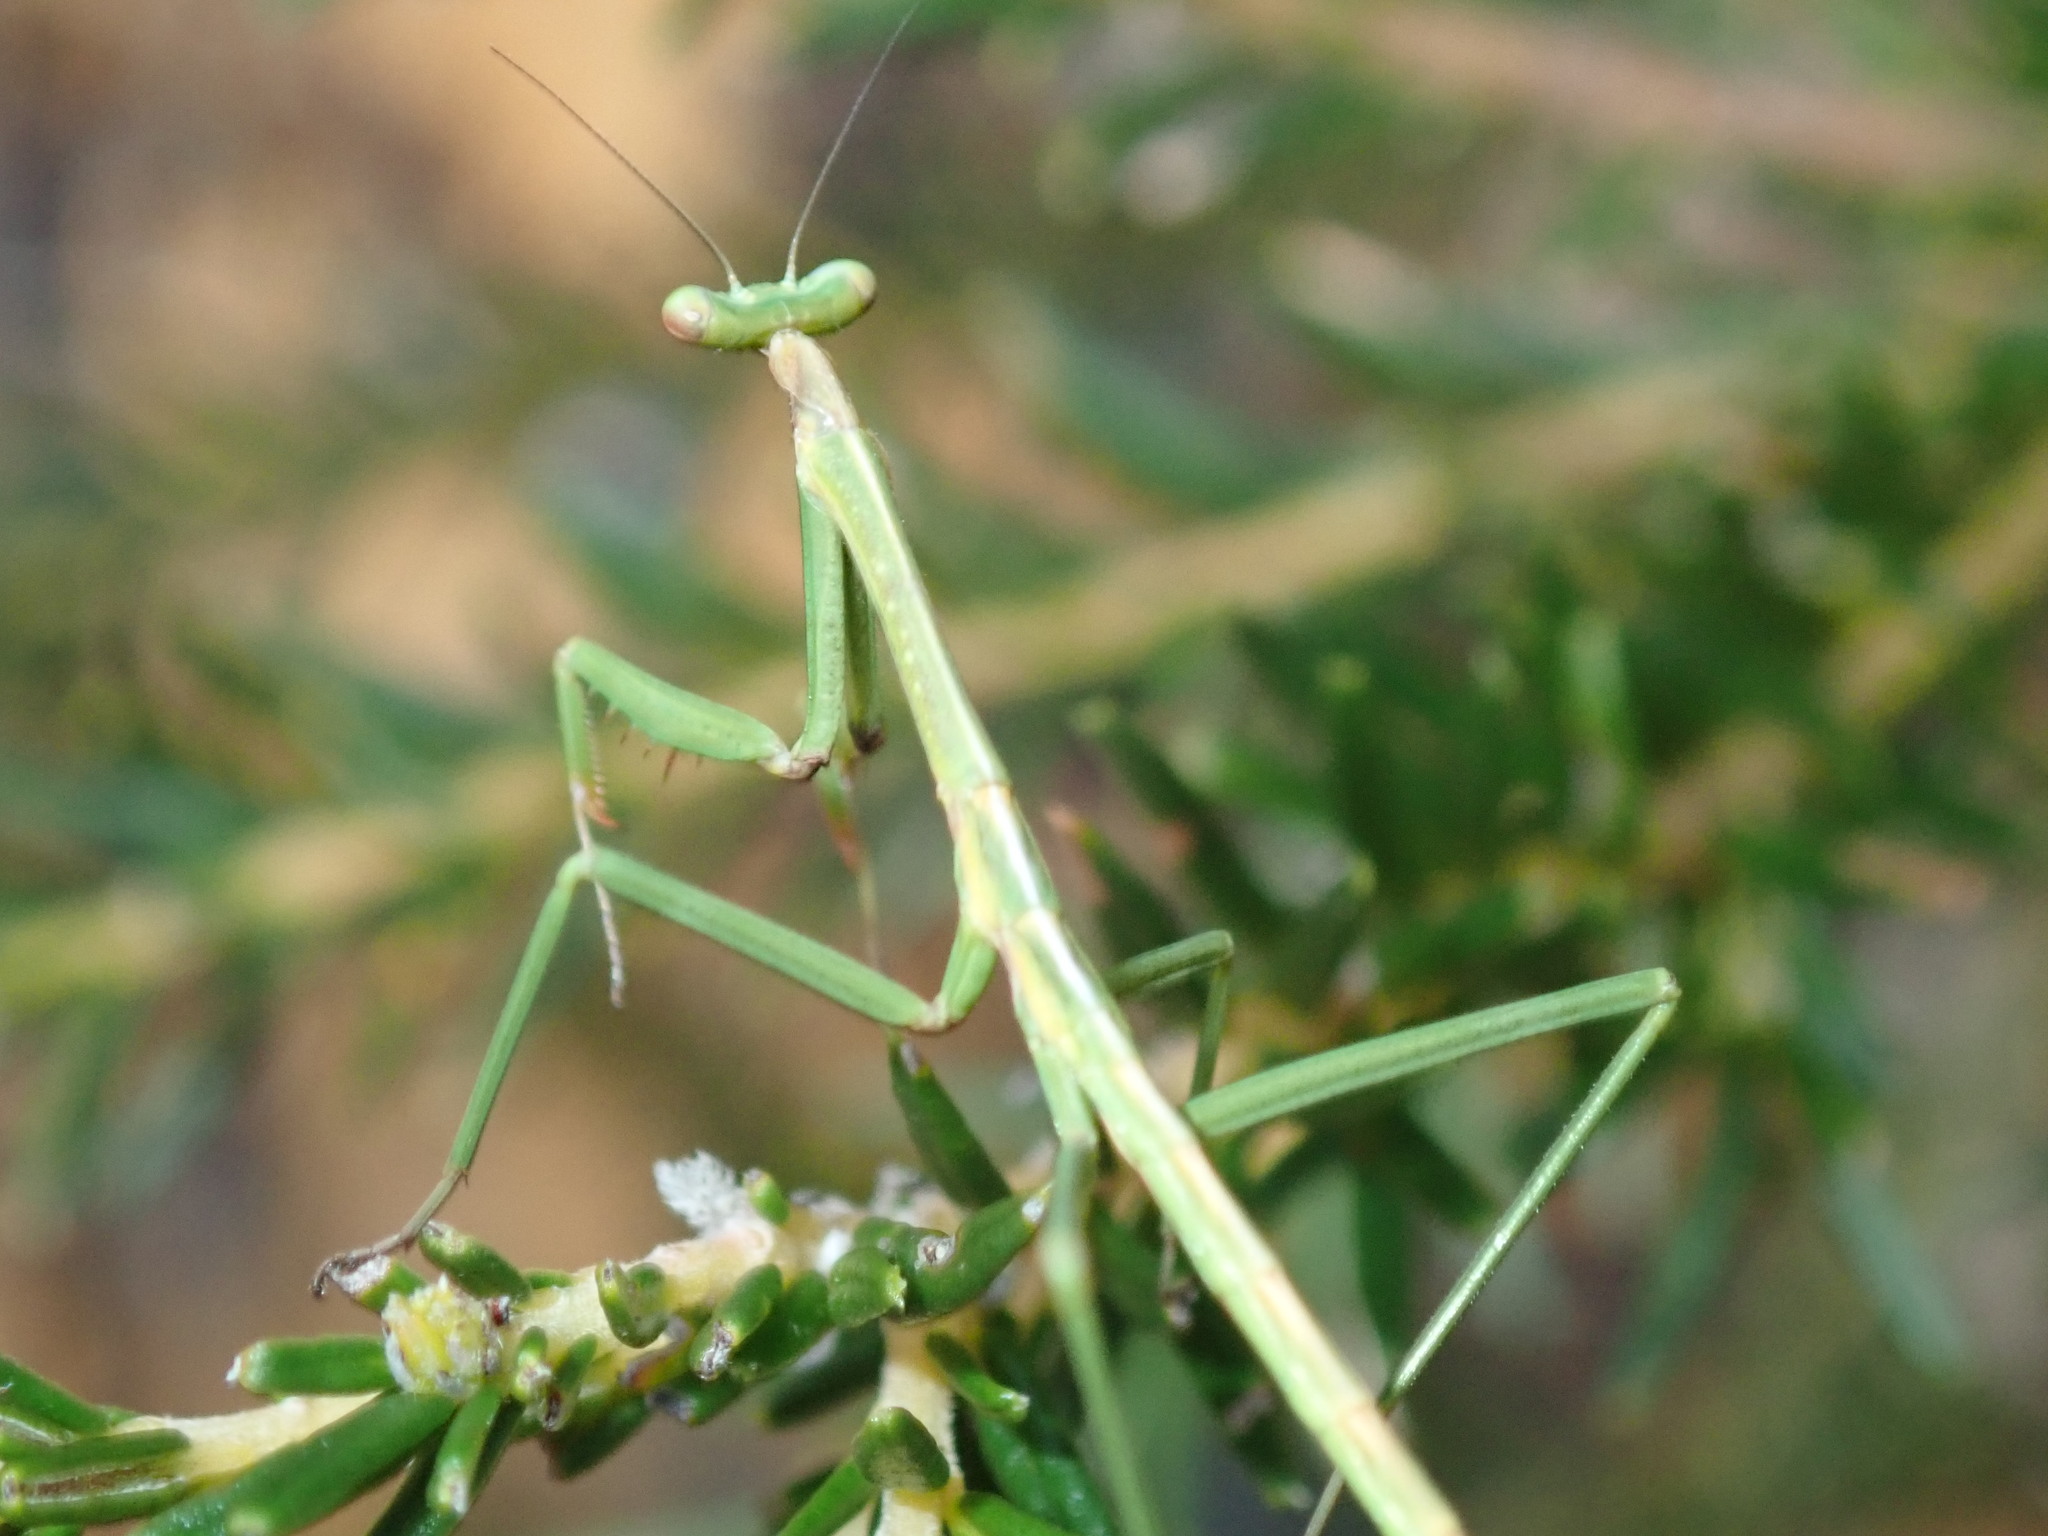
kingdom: Animalia
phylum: Arthropoda
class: Insecta
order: Mantodea
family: Mantidae
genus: Archimantis
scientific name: Archimantis latistyla
